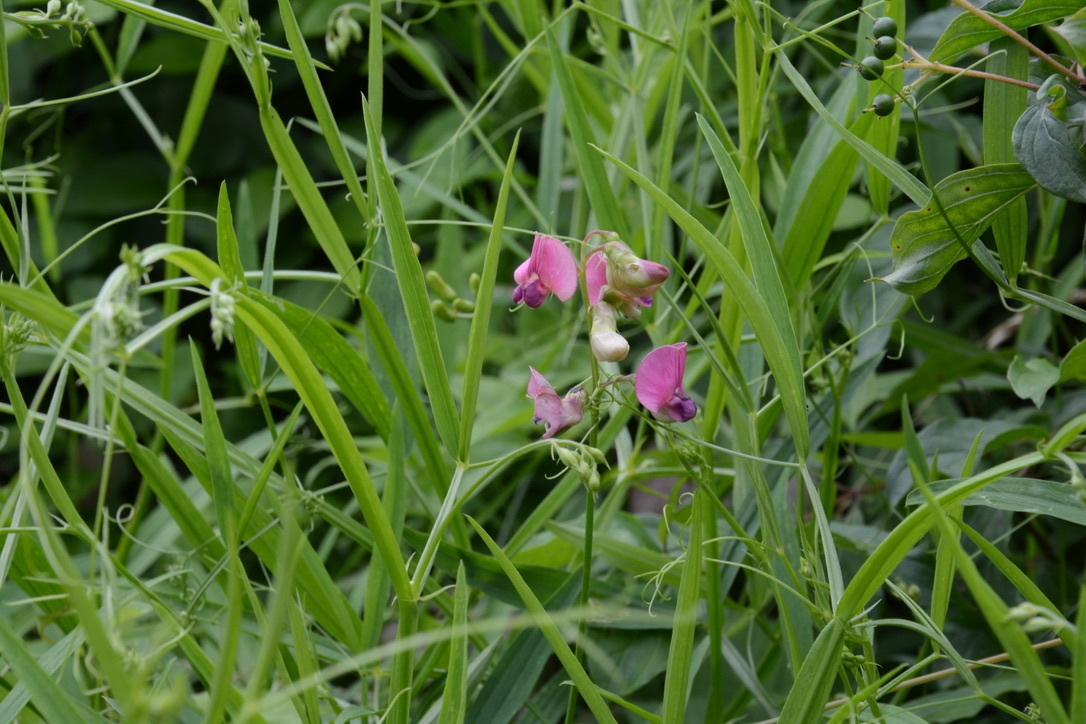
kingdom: Plantae
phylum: Tracheophyta
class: Magnoliopsida
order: Fabales
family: Fabaceae
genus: Lathyrus
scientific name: Lathyrus sylvestris
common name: Flat pea
